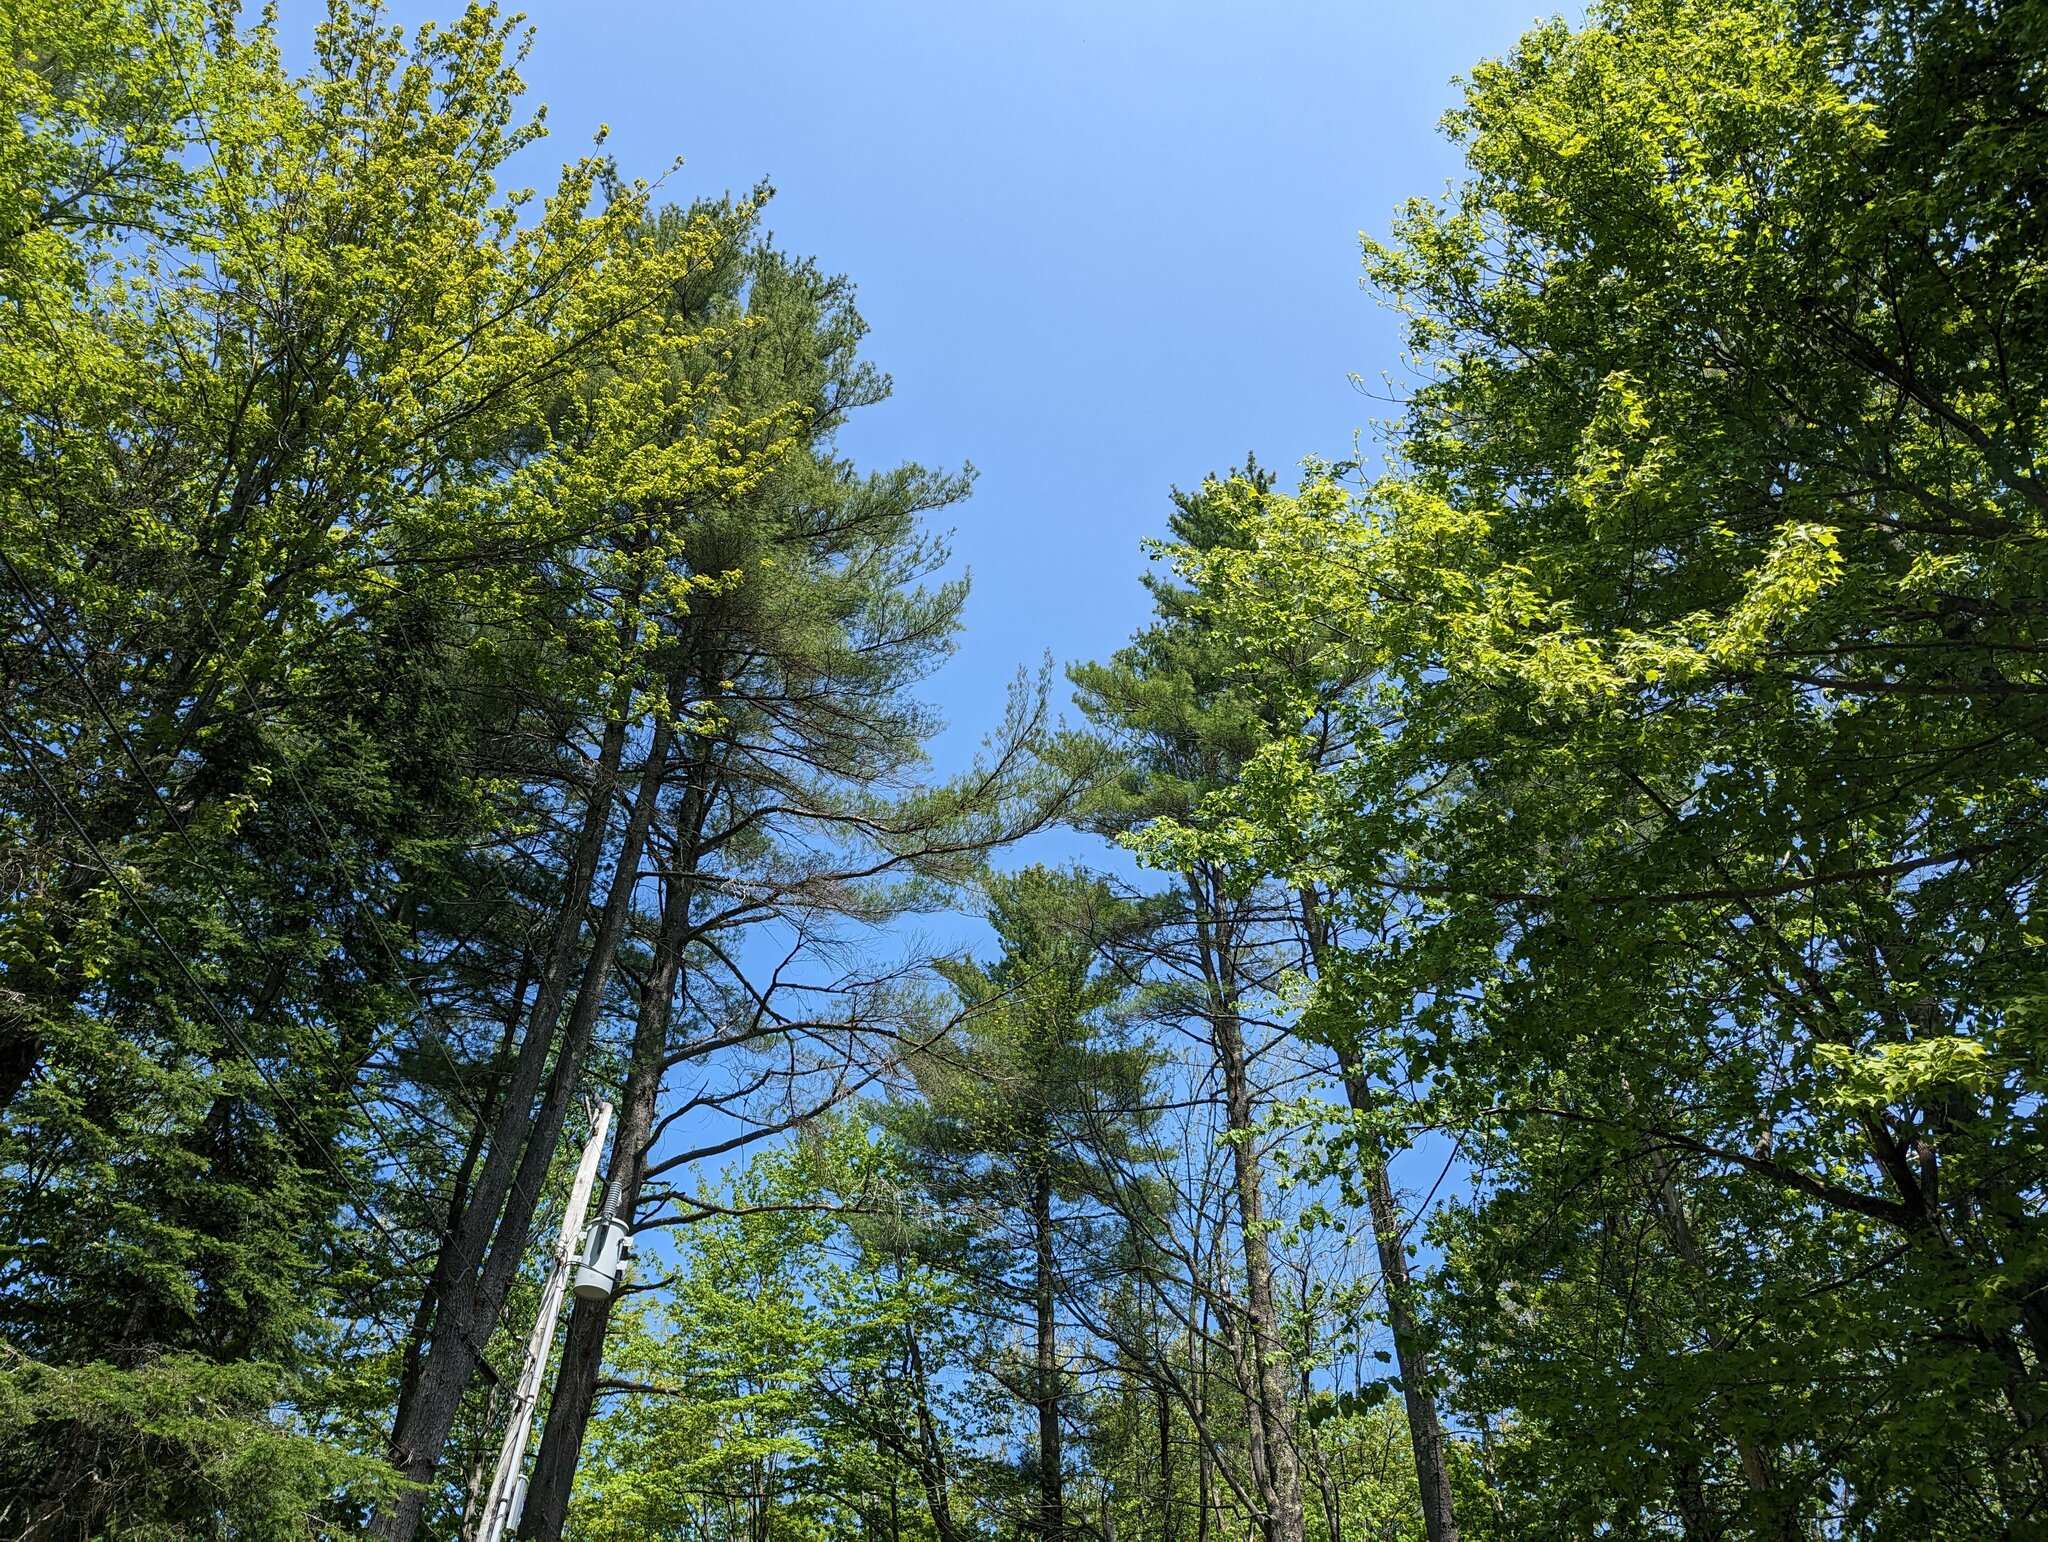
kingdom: Plantae
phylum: Tracheophyta
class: Pinopsida
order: Pinales
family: Pinaceae
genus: Pinus
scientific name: Pinus strobus
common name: Weymouth pine
